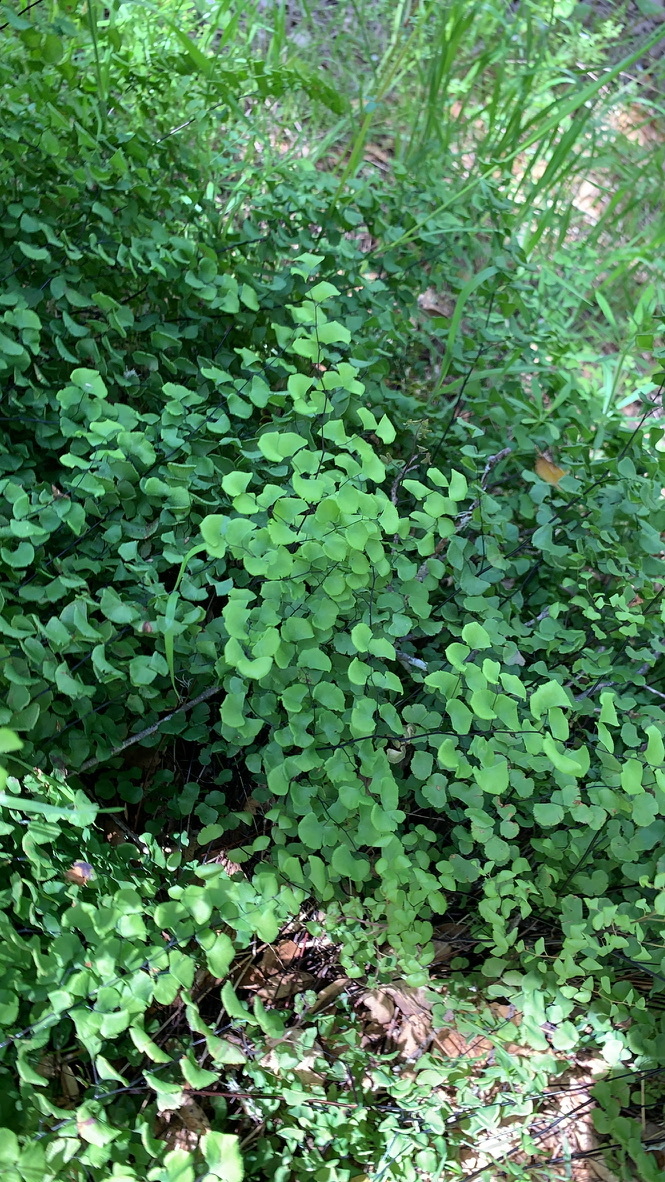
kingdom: Plantae
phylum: Tracheophyta
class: Polypodiopsida
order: Polypodiales
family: Pteridaceae
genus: Adiantum
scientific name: Adiantum jordanii
